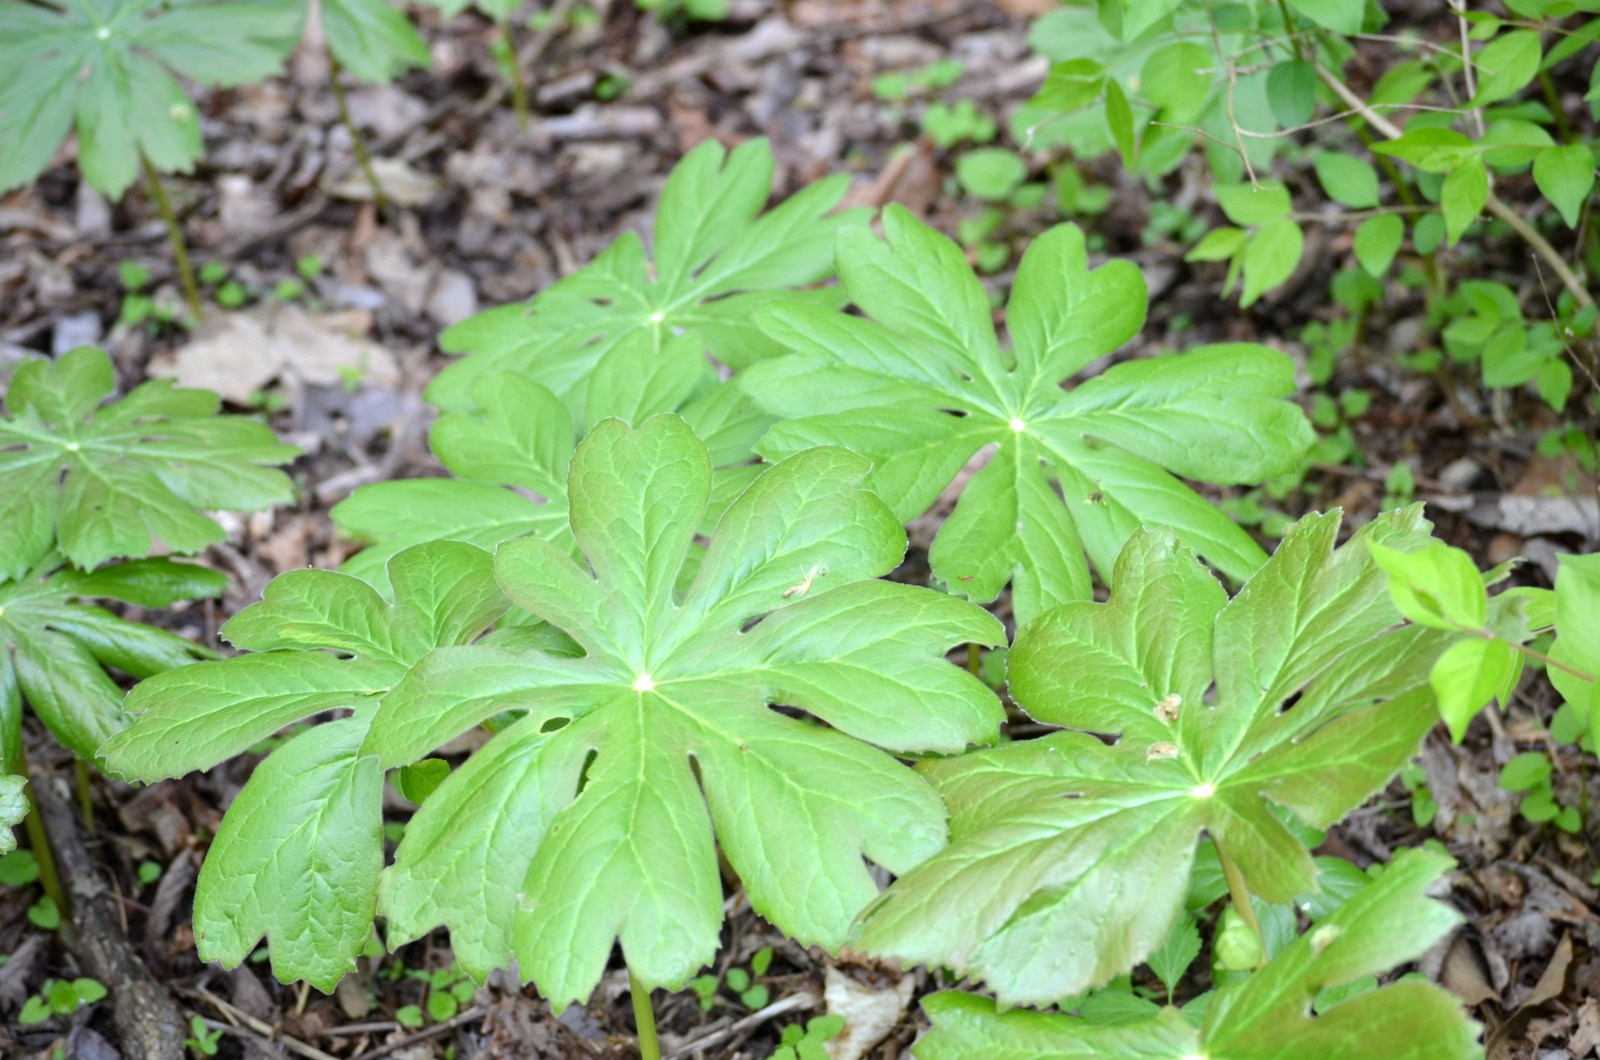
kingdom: Plantae
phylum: Tracheophyta
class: Magnoliopsida
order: Ranunculales
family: Berberidaceae
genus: Podophyllum
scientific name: Podophyllum peltatum
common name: Wild mandrake
